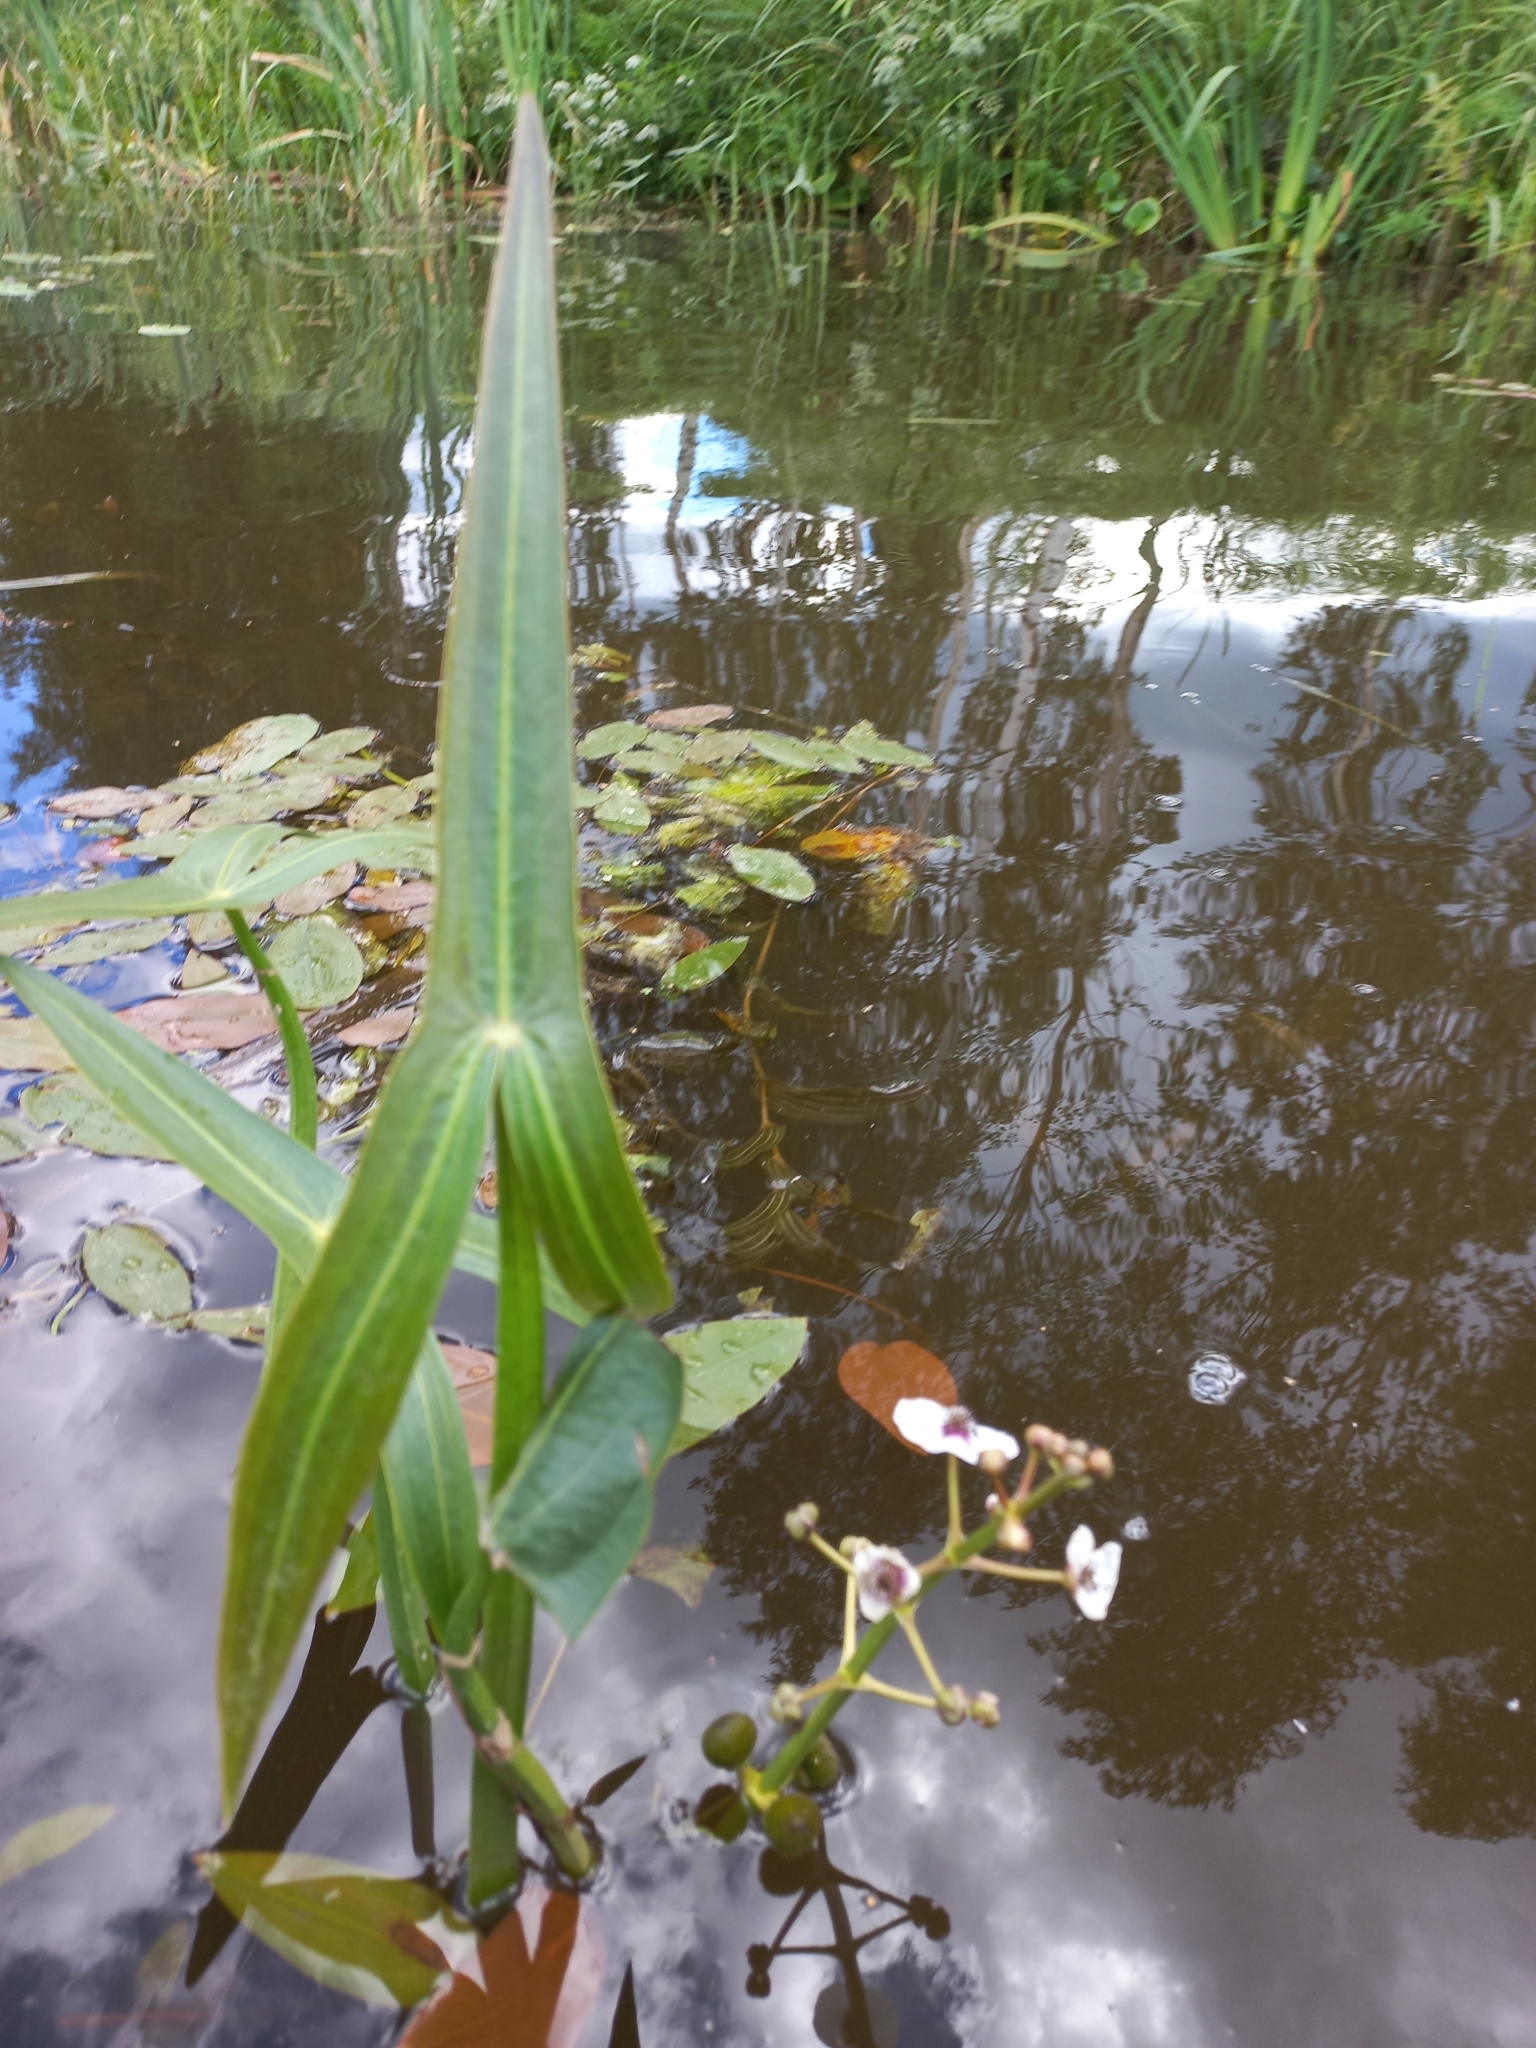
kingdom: Plantae
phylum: Tracheophyta
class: Liliopsida
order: Alismatales
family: Alismataceae
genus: Sagittaria
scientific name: Sagittaria sagittifolia
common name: Arrowhead
